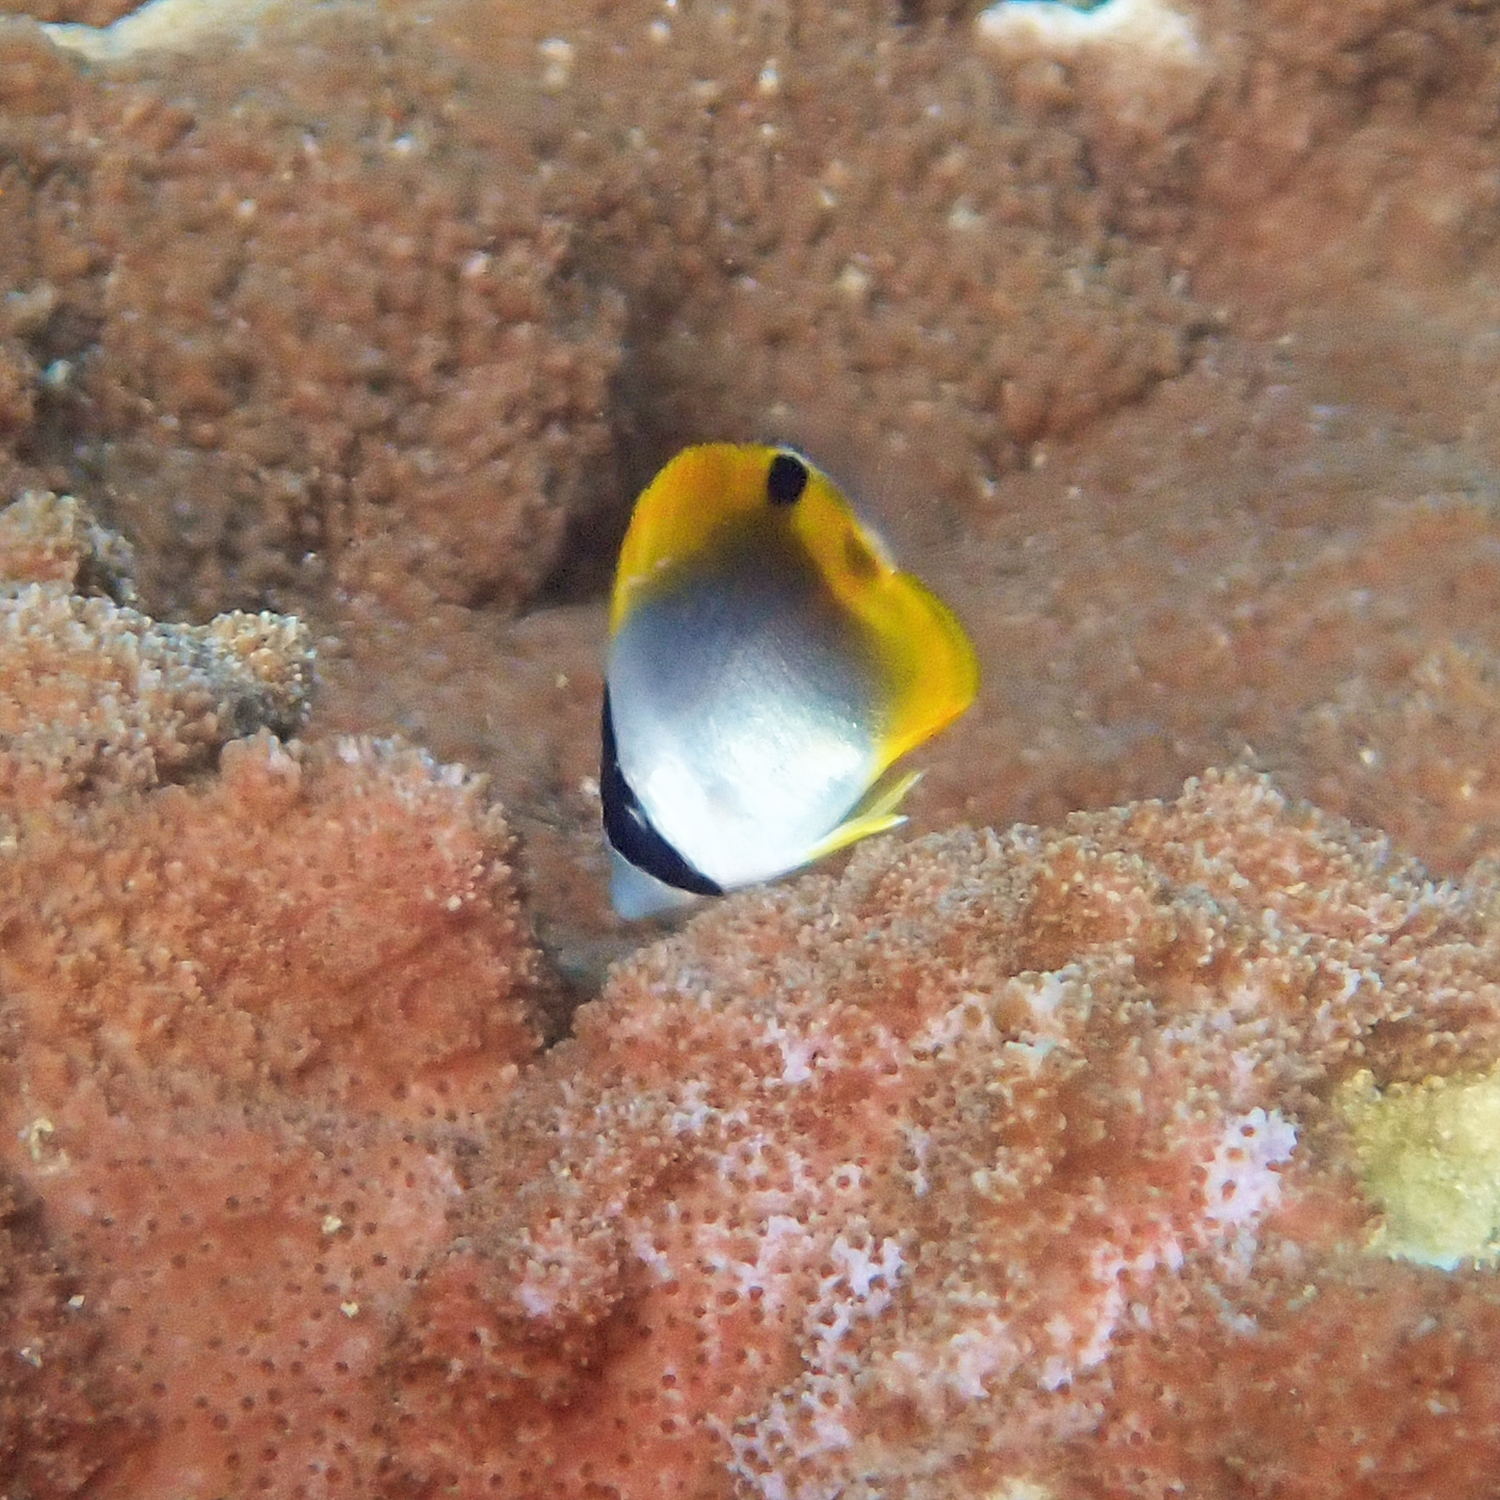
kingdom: Animalia
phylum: Chordata
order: Perciformes
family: Chaetodontidae
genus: Chaetodon
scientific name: Chaetodon auriga
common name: Threadfin butterflyfish
